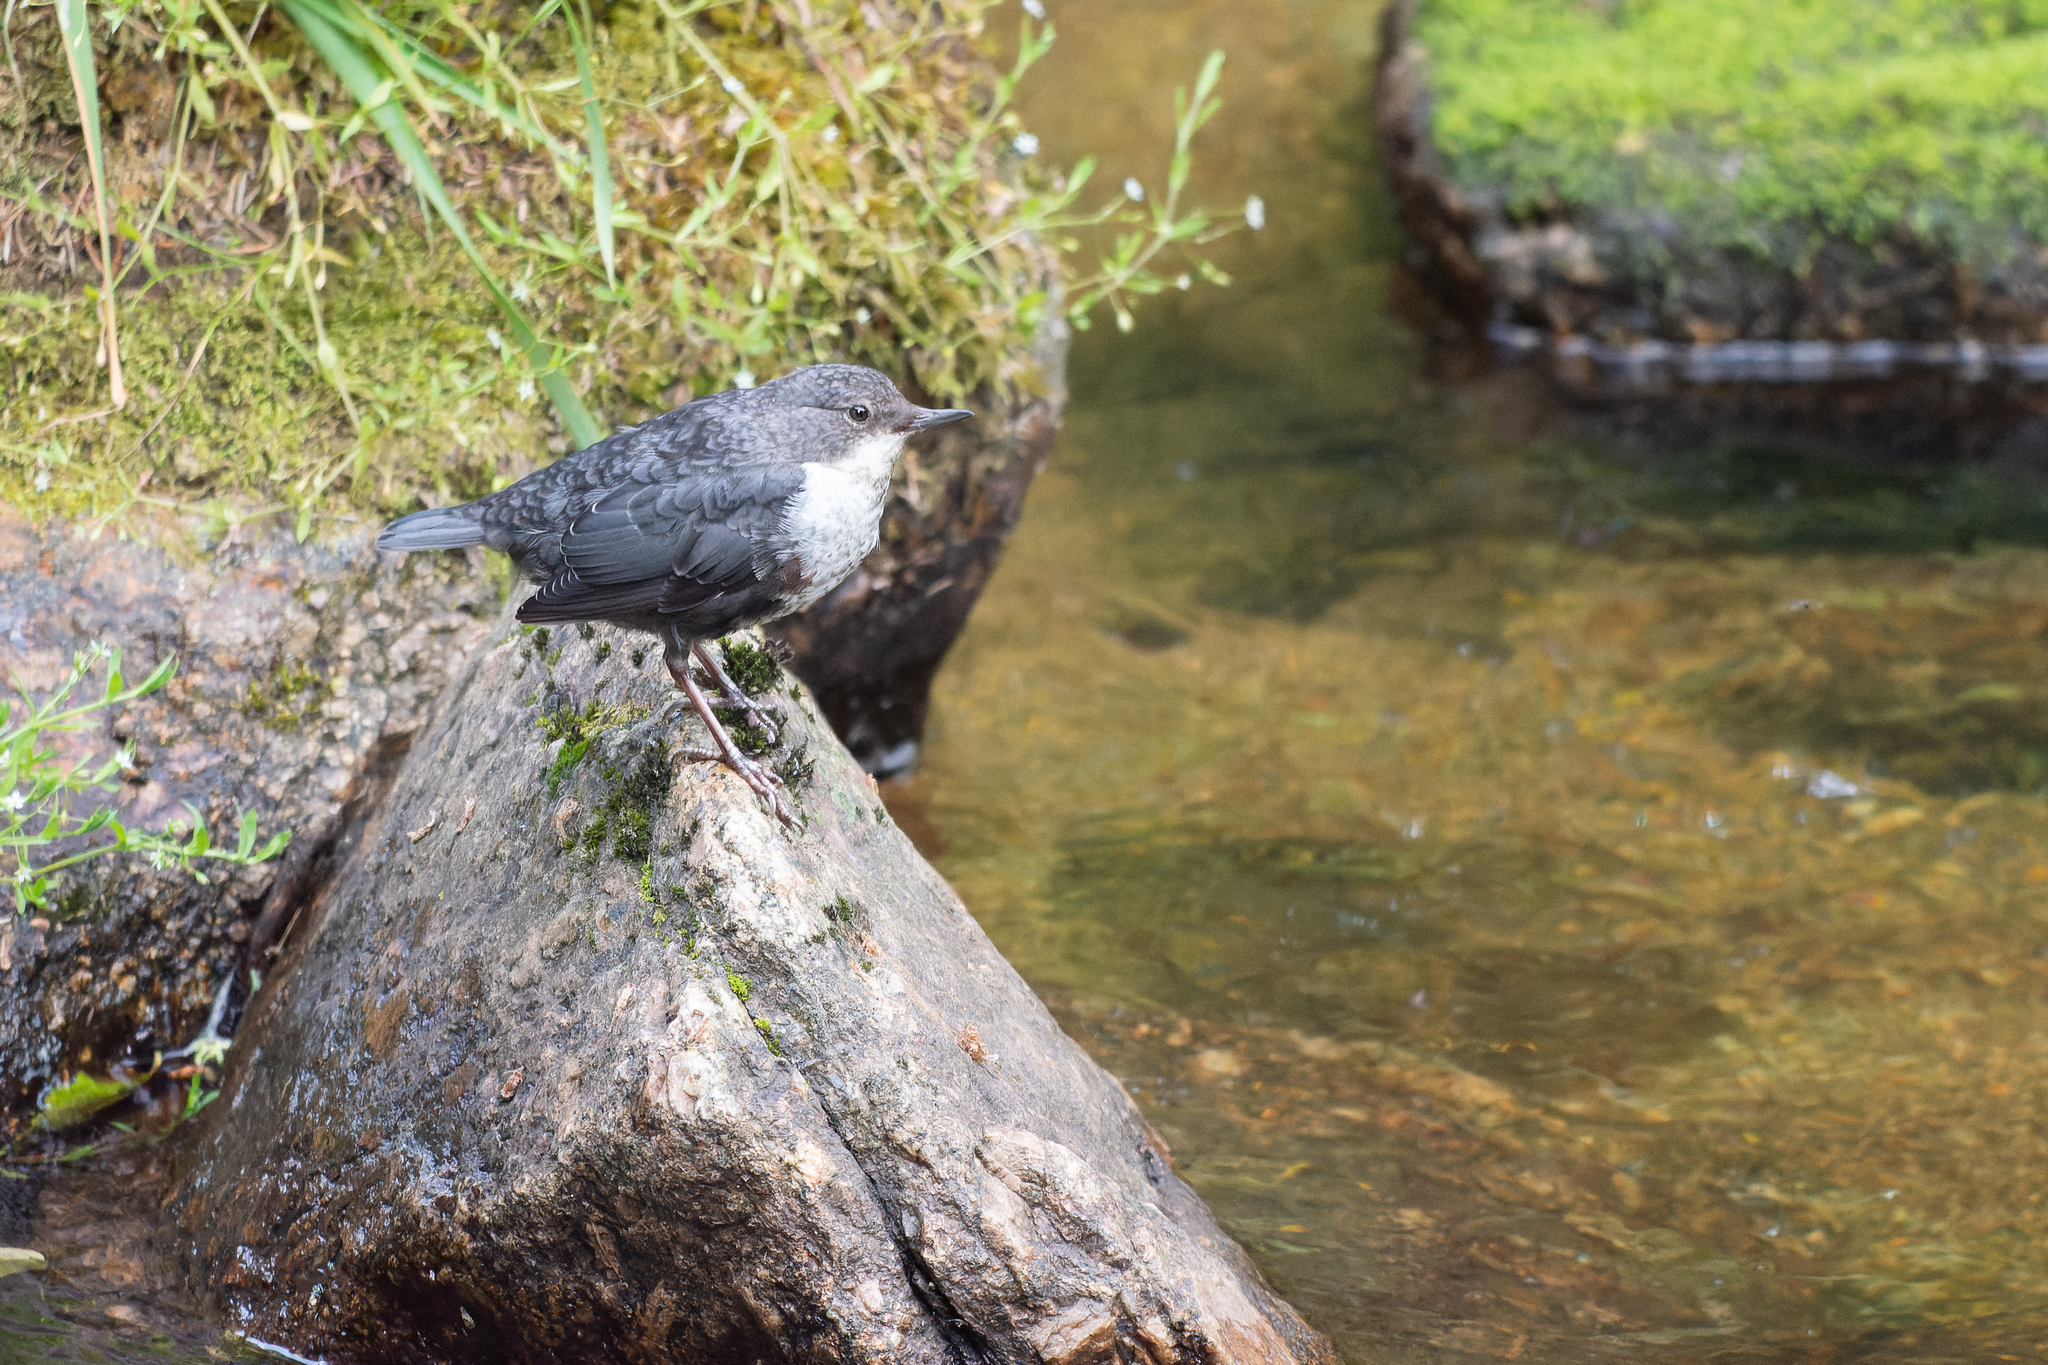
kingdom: Animalia
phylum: Chordata
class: Aves
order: Passeriformes
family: Cinclidae
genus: Cinclus
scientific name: Cinclus cinclus
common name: White-throated dipper
